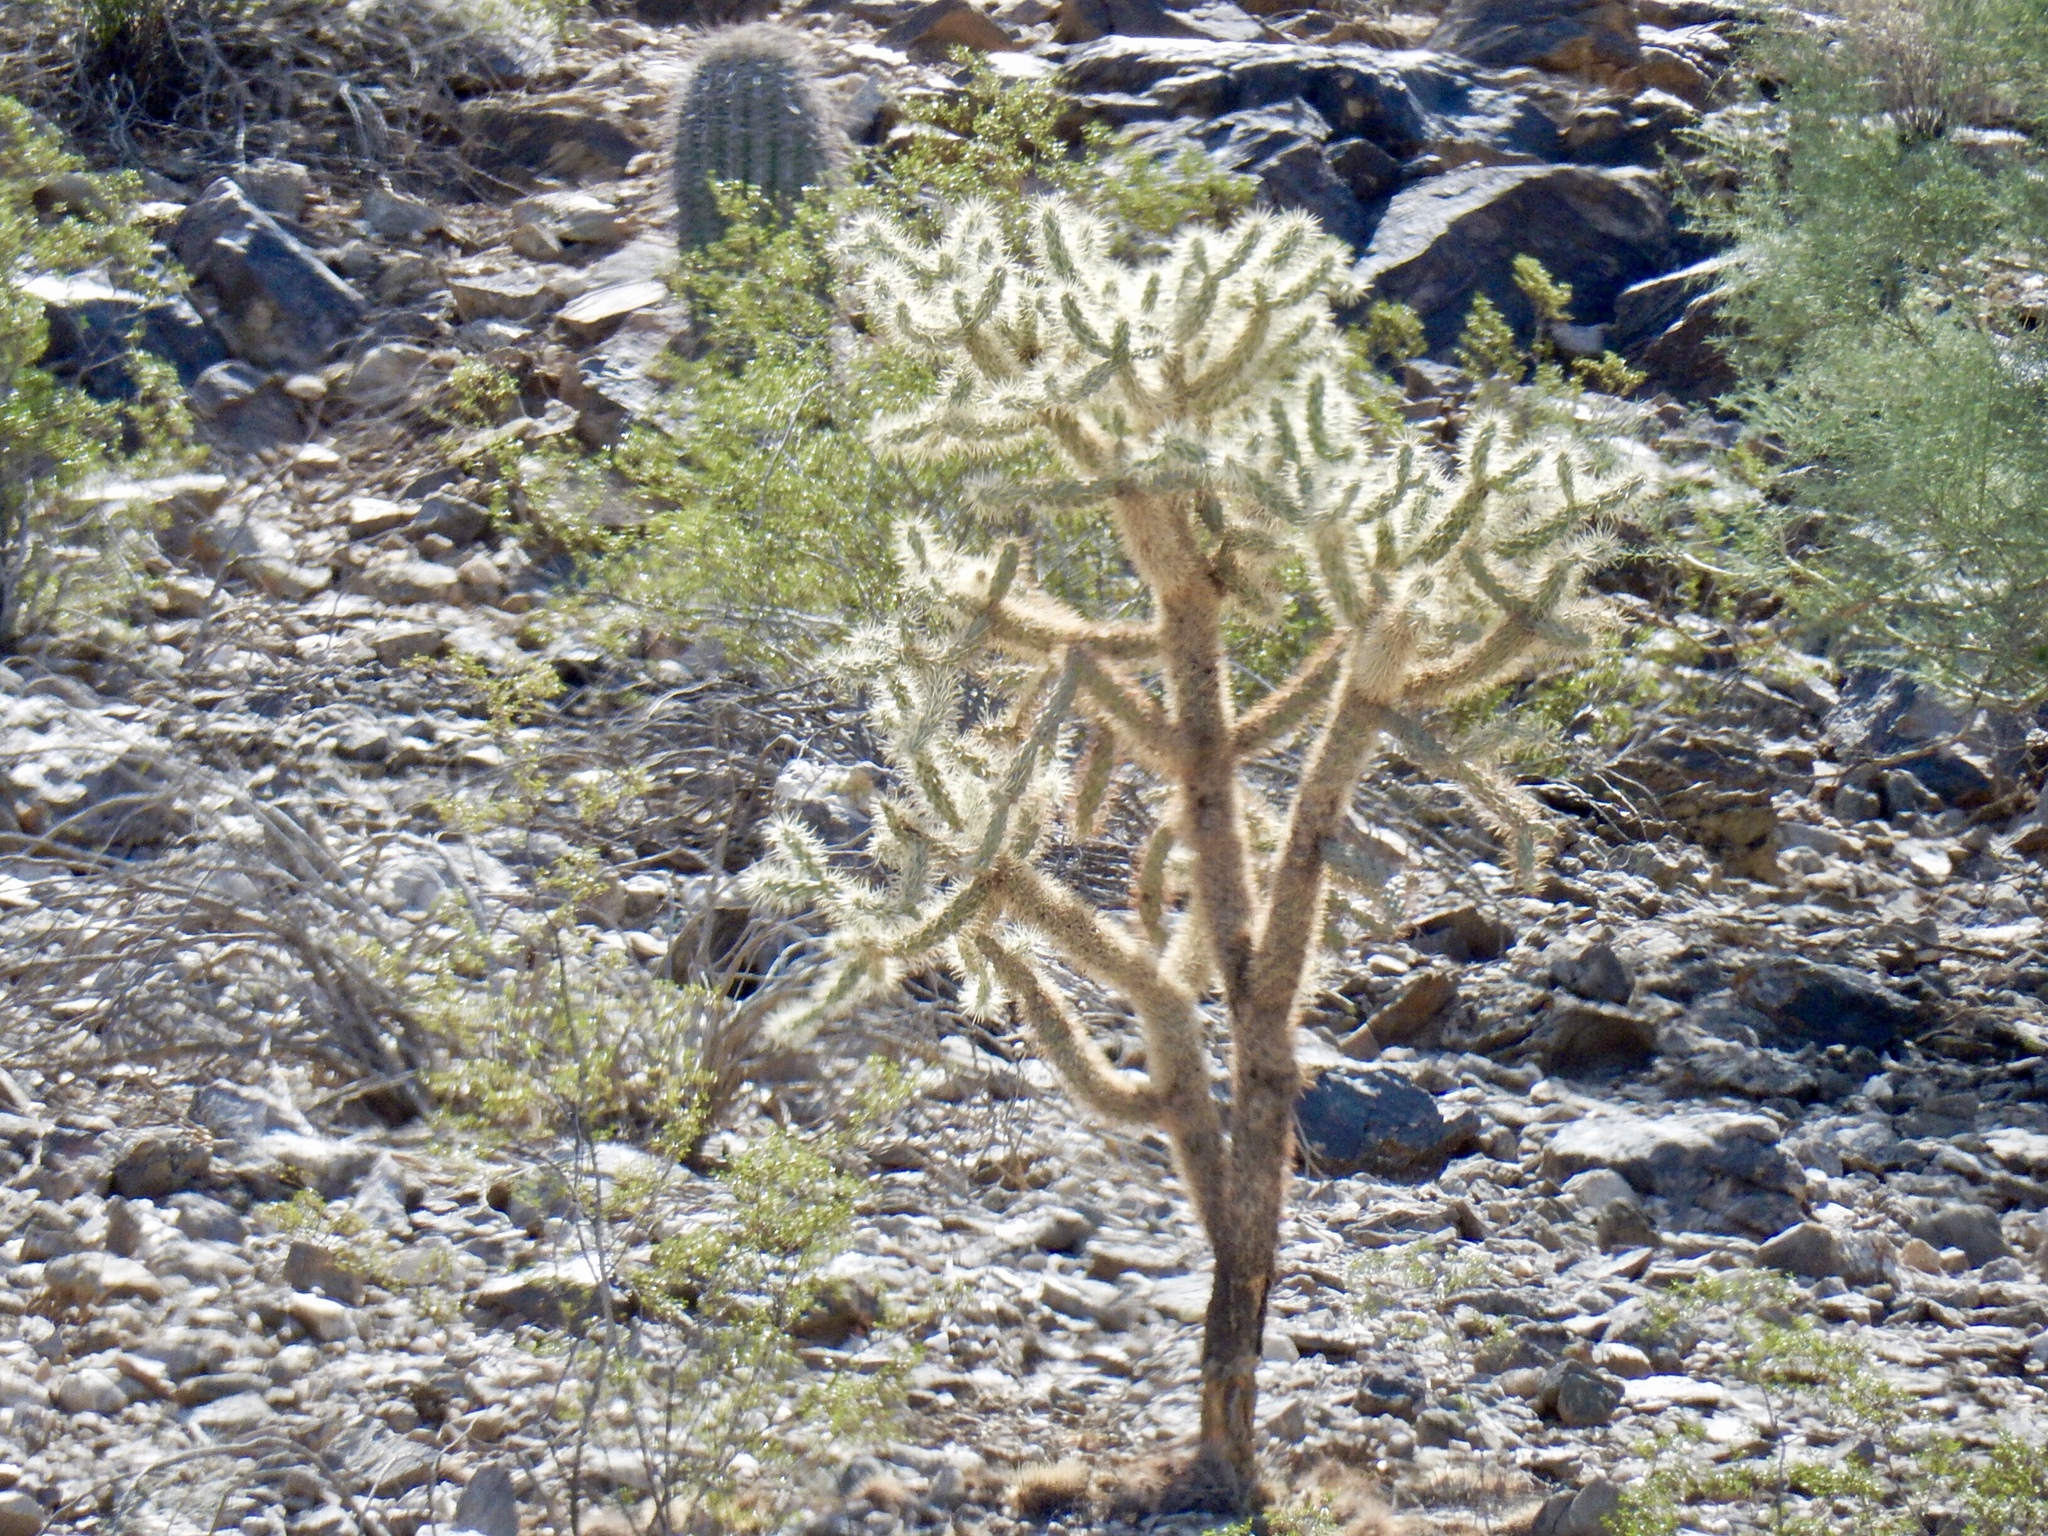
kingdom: Plantae
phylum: Tracheophyta
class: Magnoliopsida
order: Caryophyllales
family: Cactaceae
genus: Cylindropuntia
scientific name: Cylindropuntia fulgida
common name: Jumping cholla
